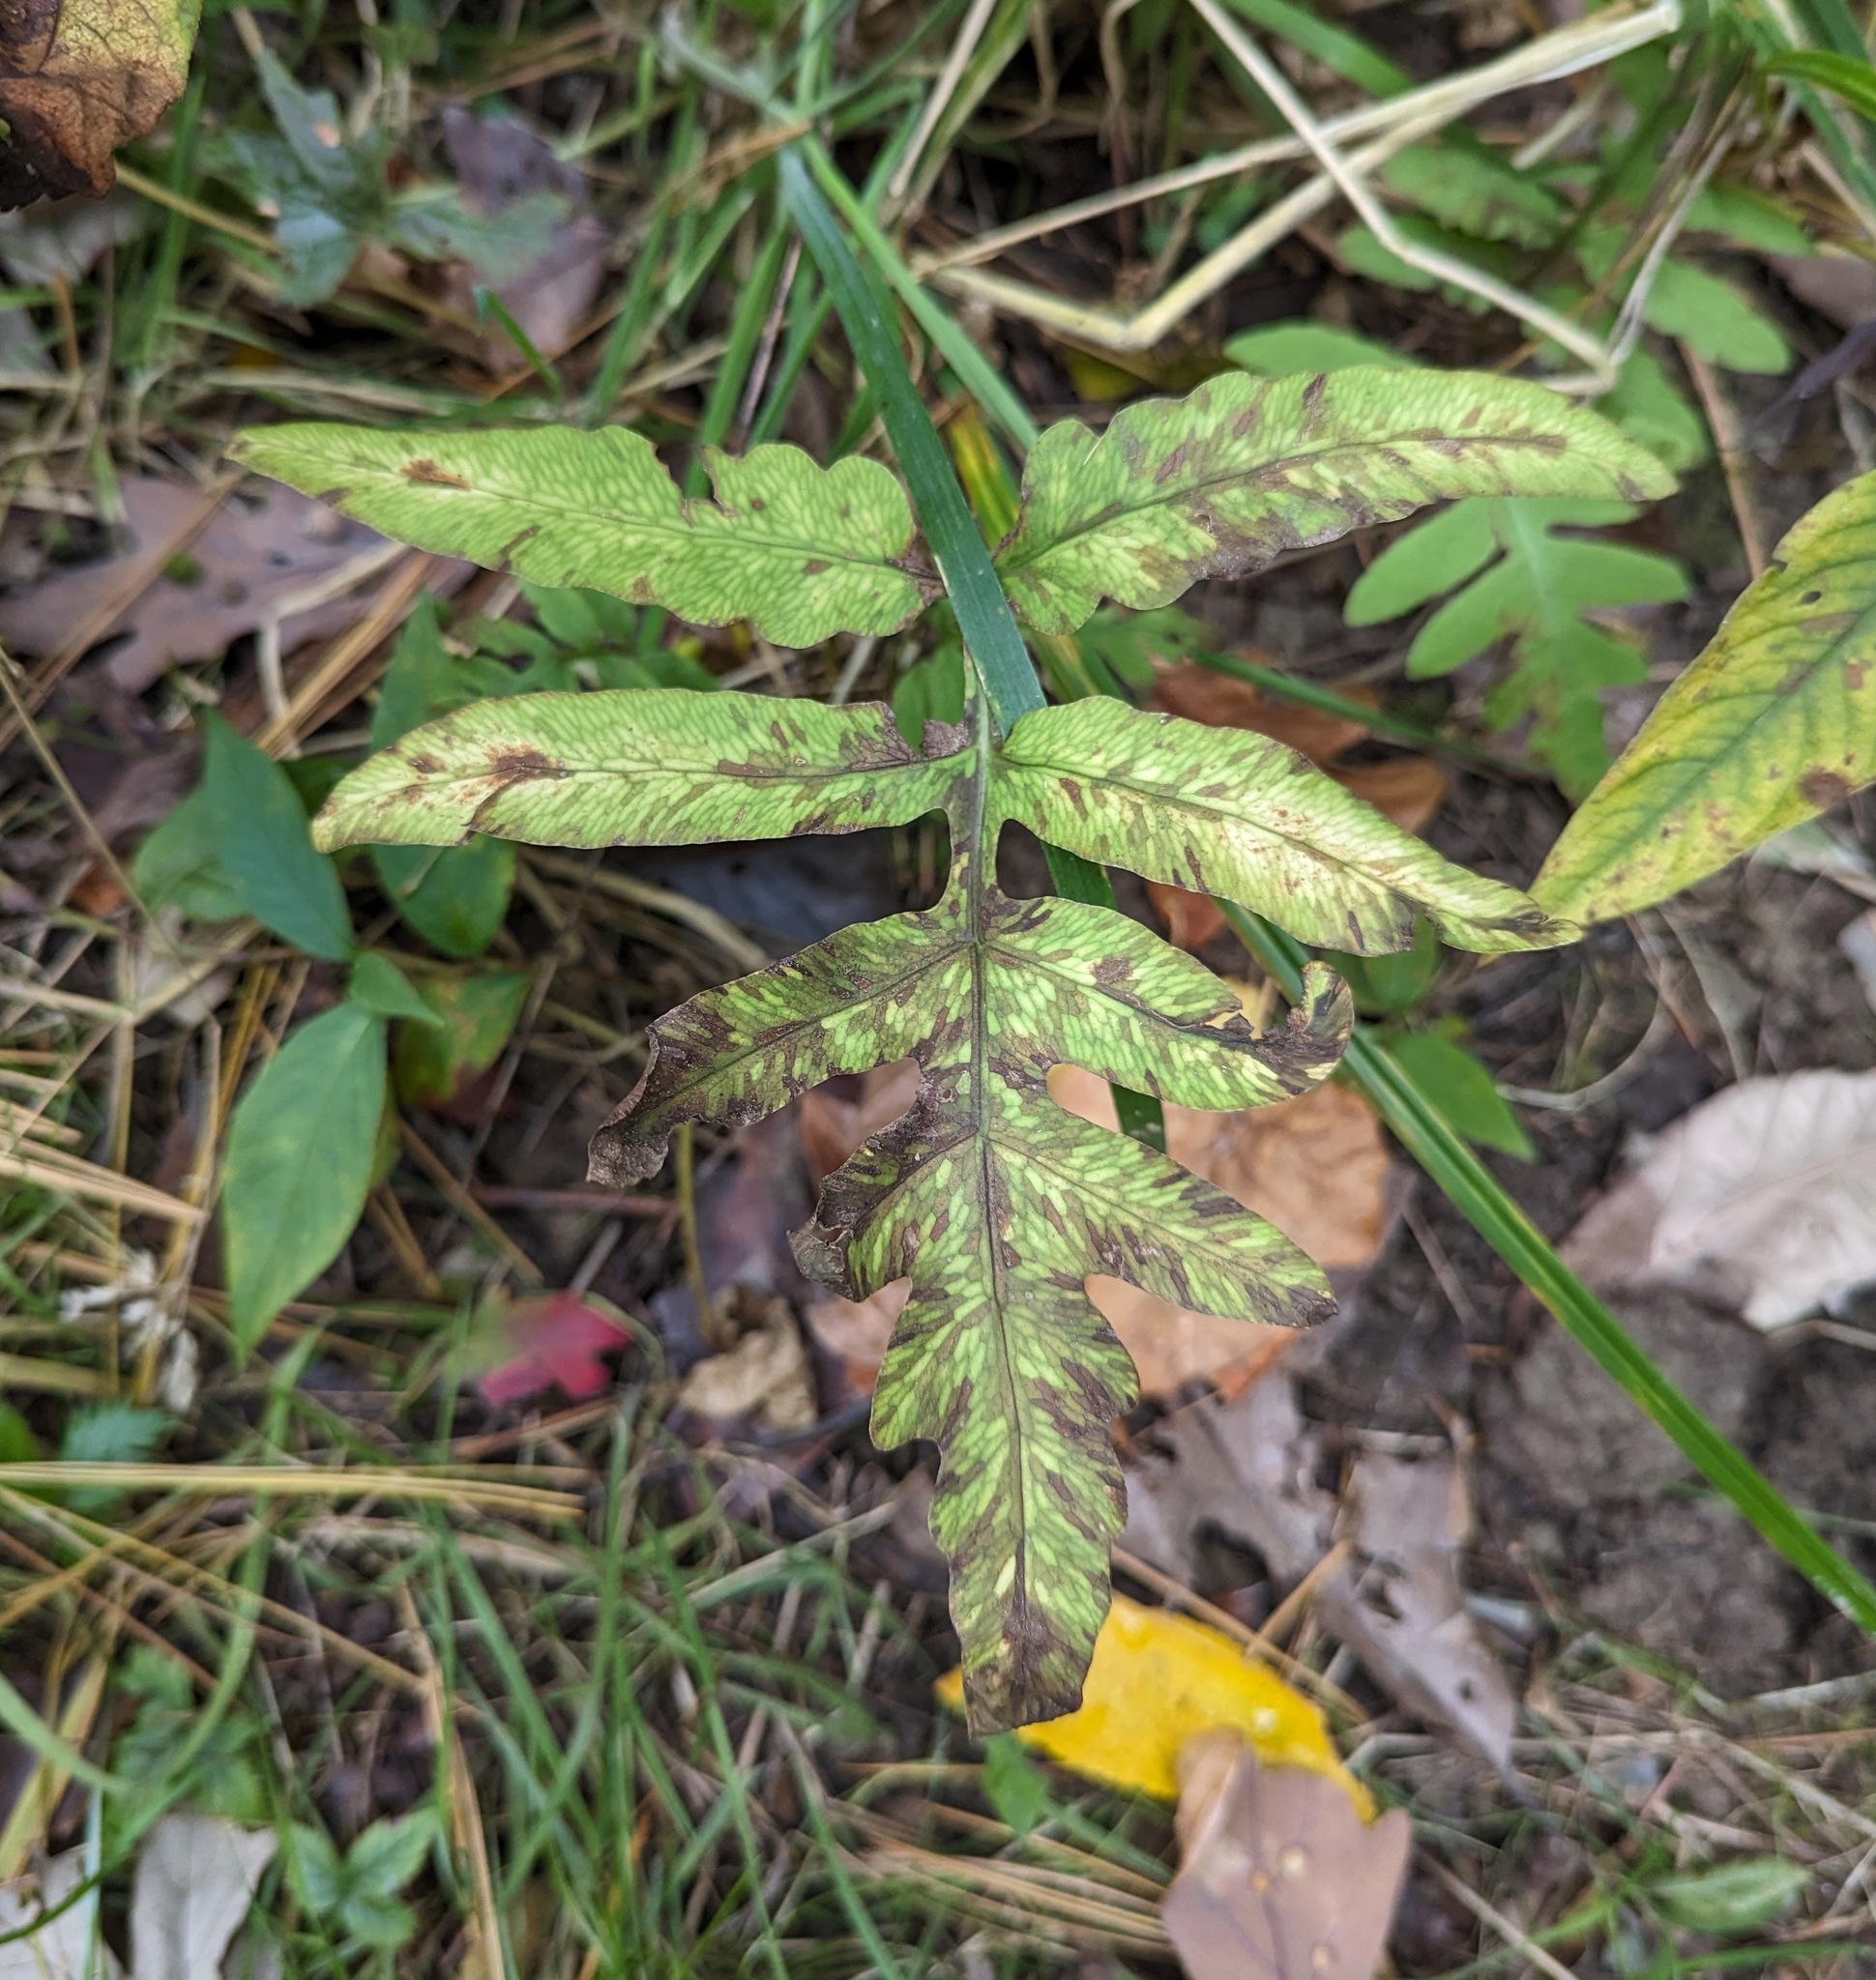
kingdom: Plantae
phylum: Tracheophyta
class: Polypodiopsida
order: Polypodiales
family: Onocleaceae
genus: Onoclea
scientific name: Onoclea sensibilis
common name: Sensitive fern
